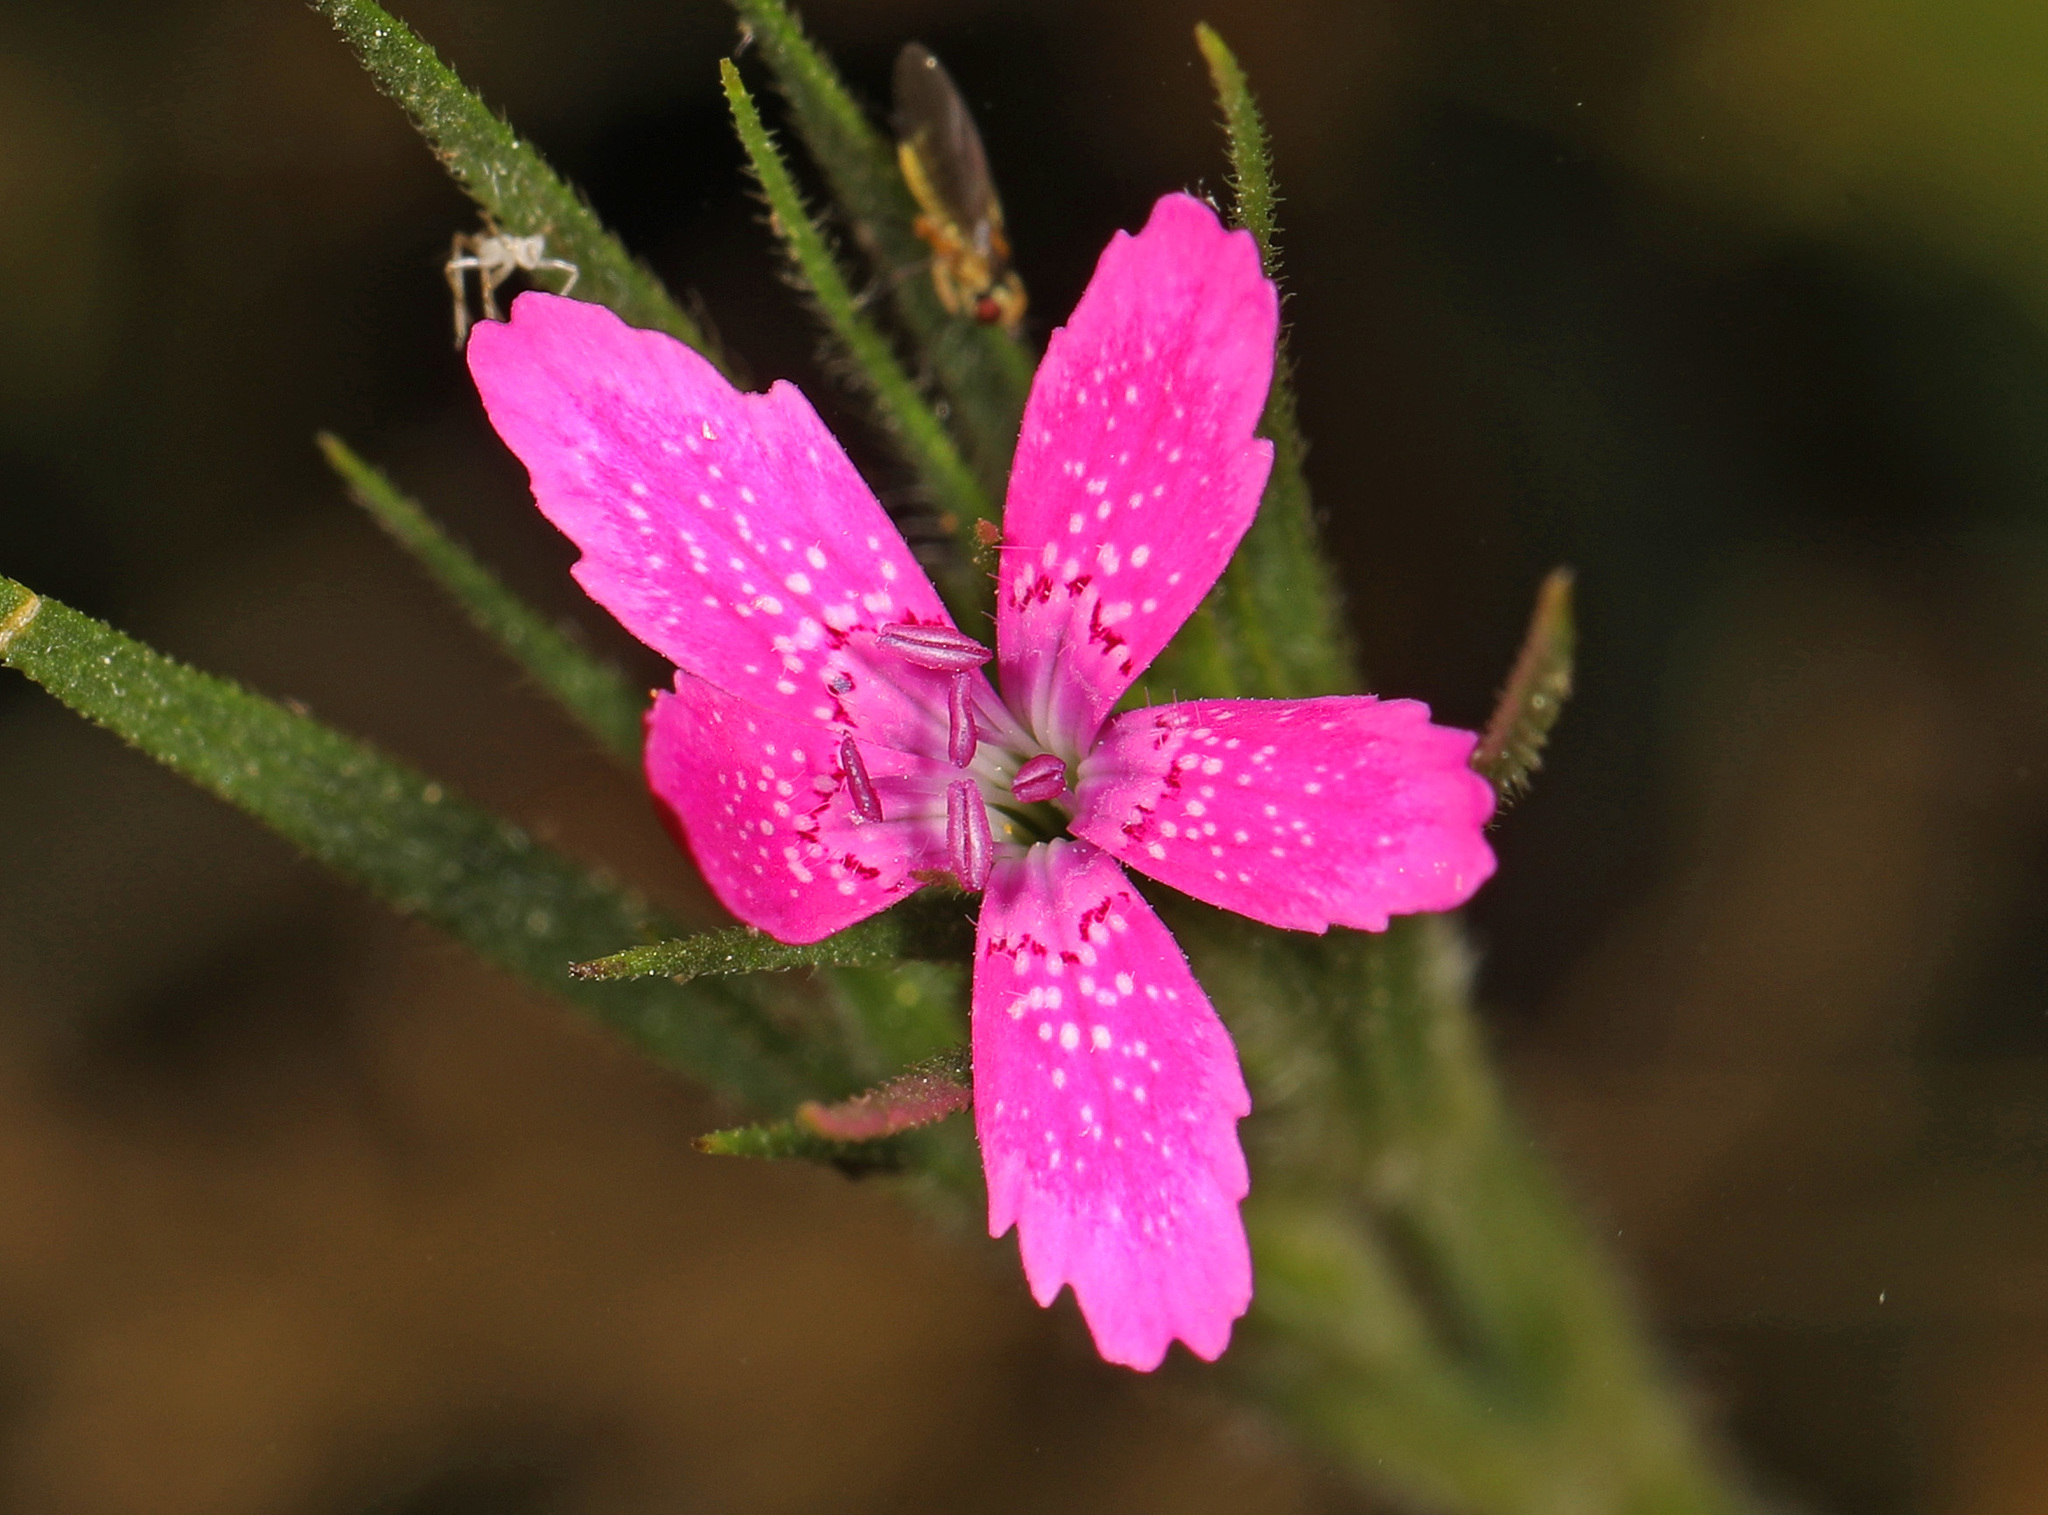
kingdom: Plantae
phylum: Tracheophyta
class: Magnoliopsida
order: Caryophyllales
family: Caryophyllaceae
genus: Dianthus
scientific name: Dianthus armeria
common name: Deptford pink
